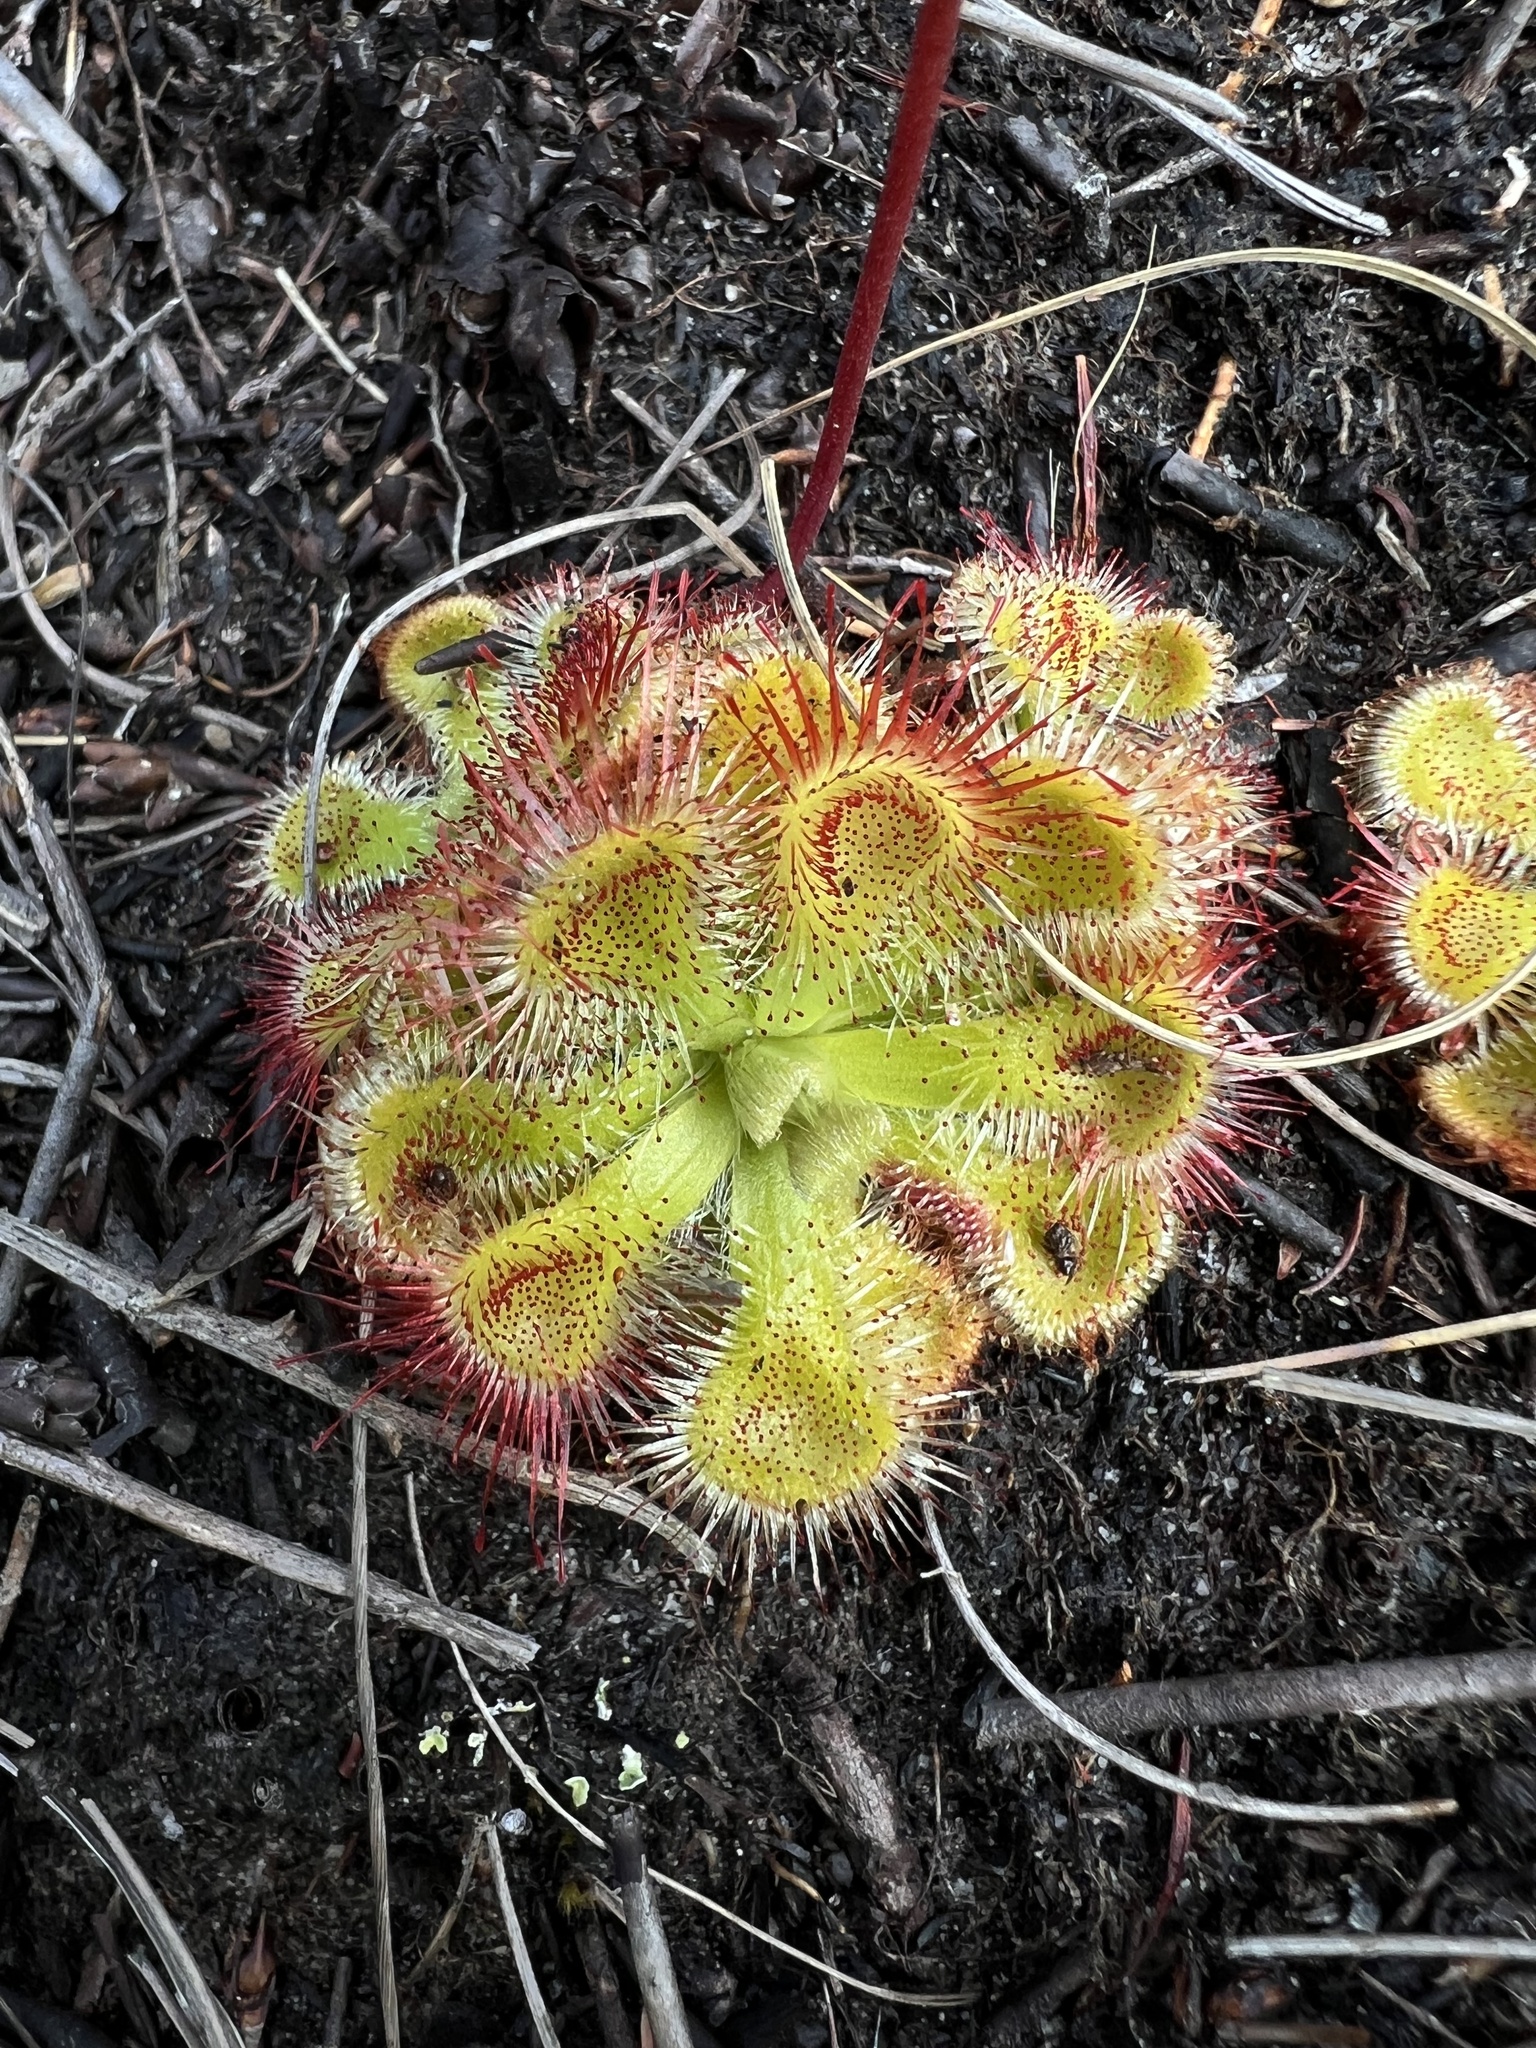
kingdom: Plantae
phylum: Tracheophyta
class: Magnoliopsida
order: Caryophyllales
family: Droseraceae
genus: Drosera
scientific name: Drosera xerophila
